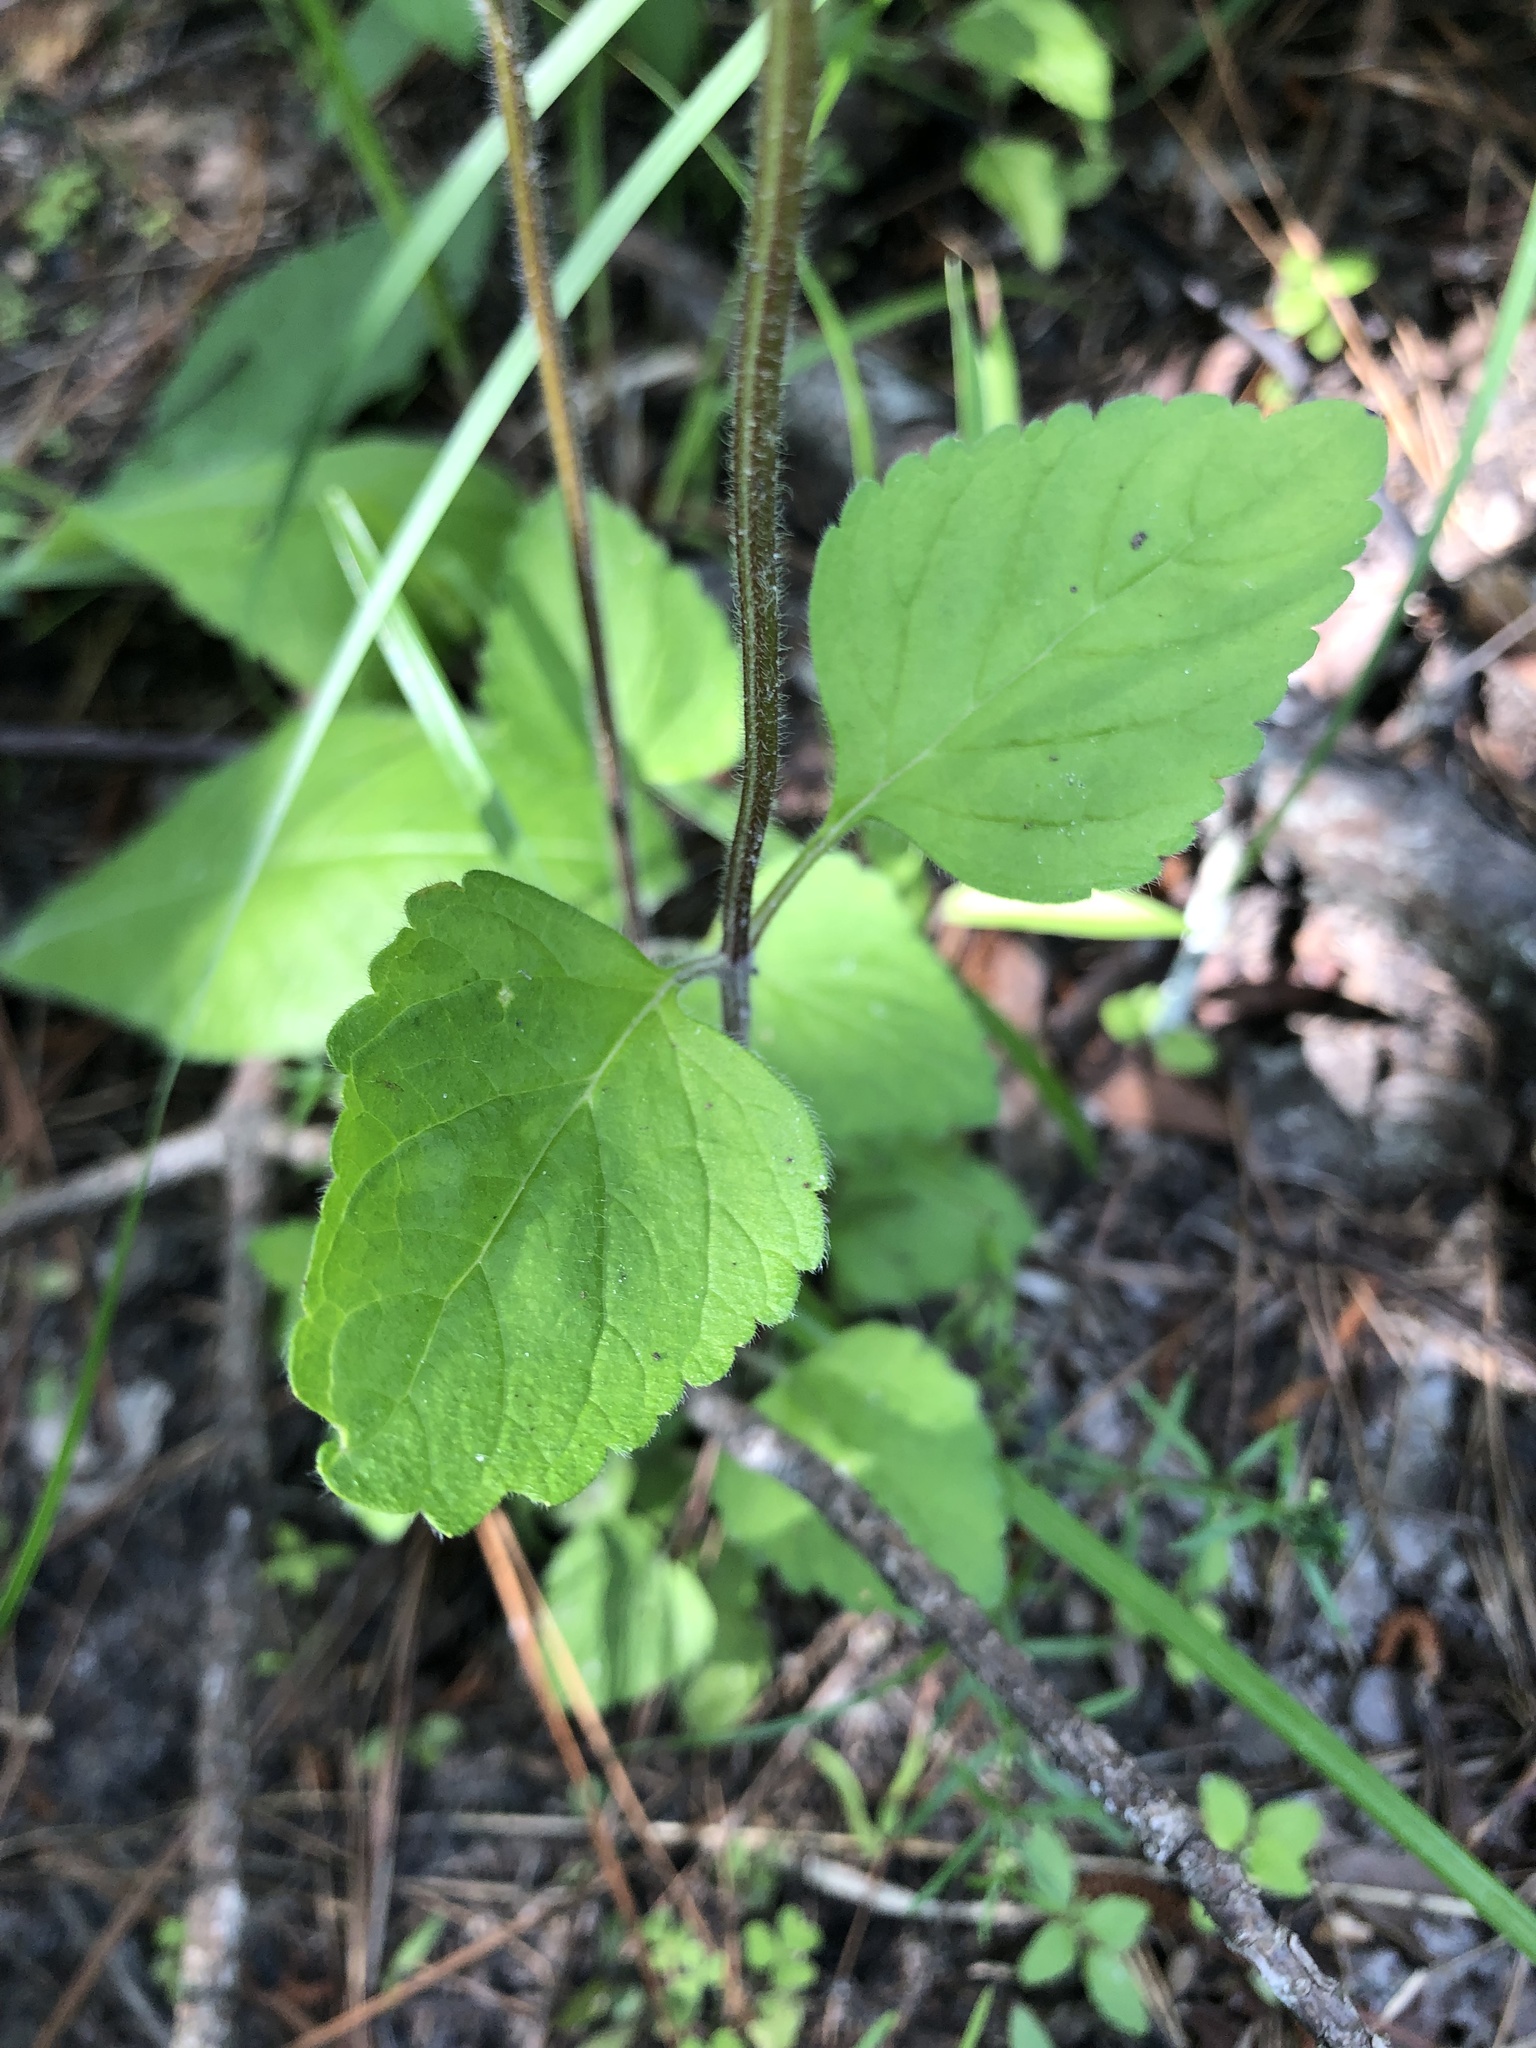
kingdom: Plantae
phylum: Tracheophyta
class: Magnoliopsida
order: Lamiales
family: Lamiaceae
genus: Scutellaria
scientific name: Scutellaria elliptica
